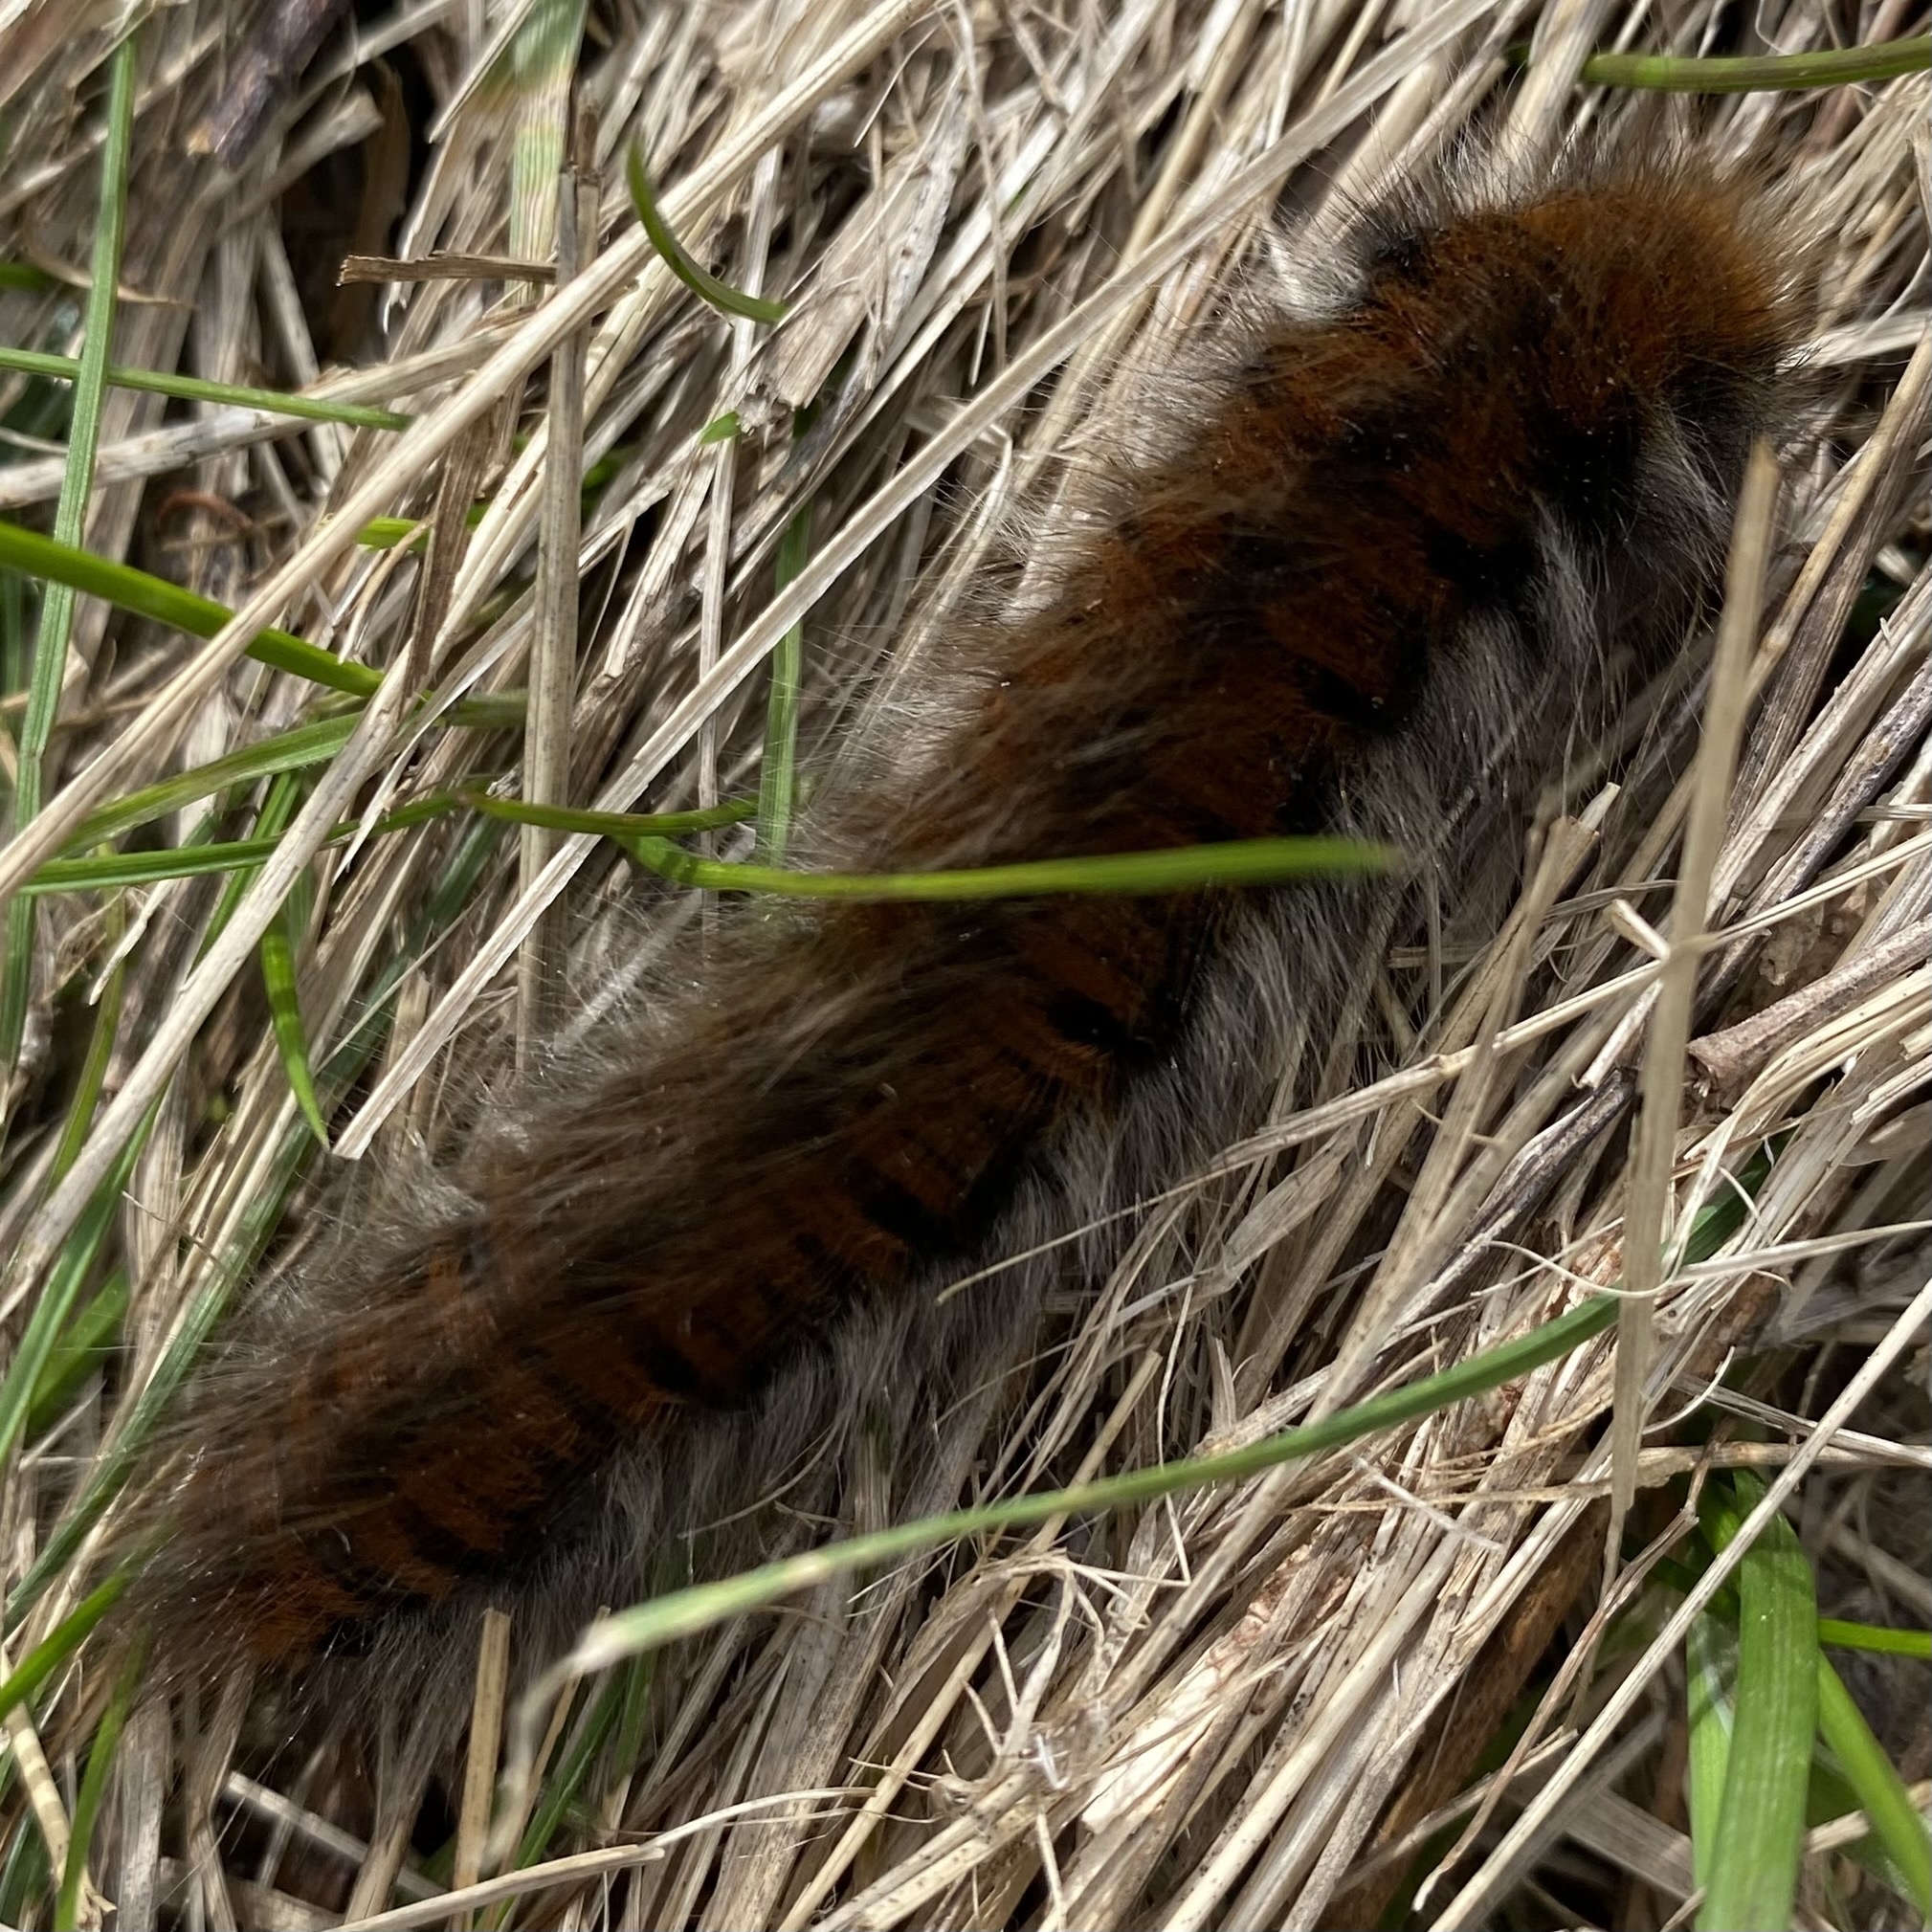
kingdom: Animalia
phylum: Arthropoda
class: Insecta
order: Lepidoptera
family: Lasiocampidae
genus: Macrothylacia
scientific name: Macrothylacia rubi
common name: Fox moth
